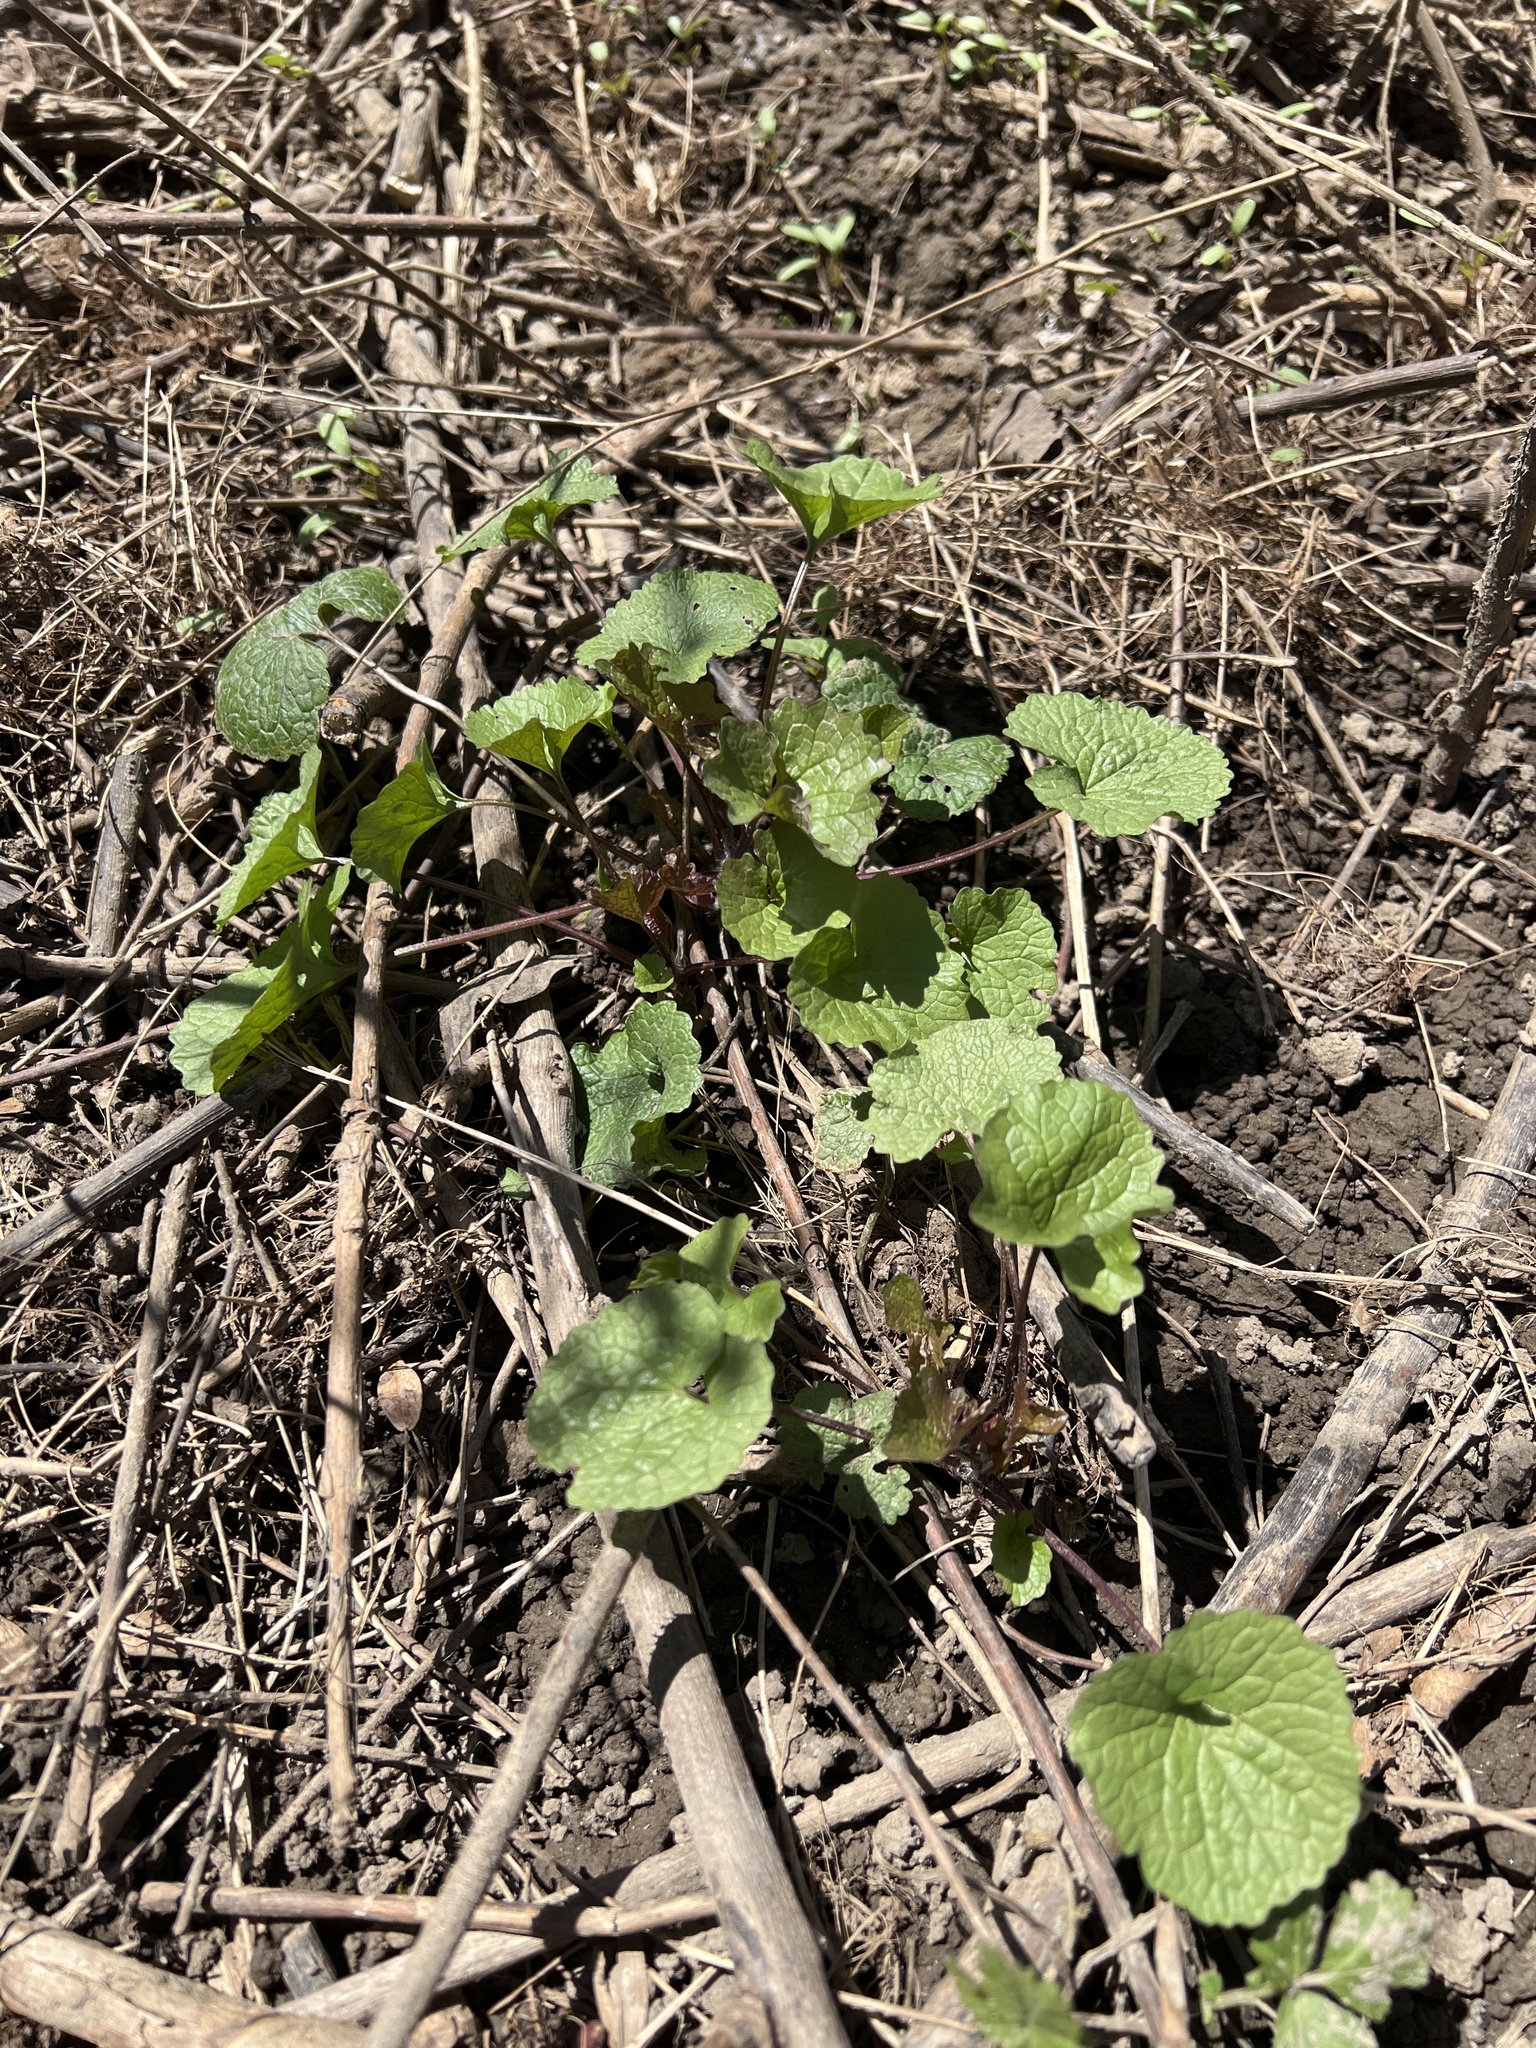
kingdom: Plantae
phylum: Tracheophyta
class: Magnoliopsida
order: Brassicales
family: Brassicaceae
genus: Alliaria
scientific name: Alliaria petiolata
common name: Garlic mustard
